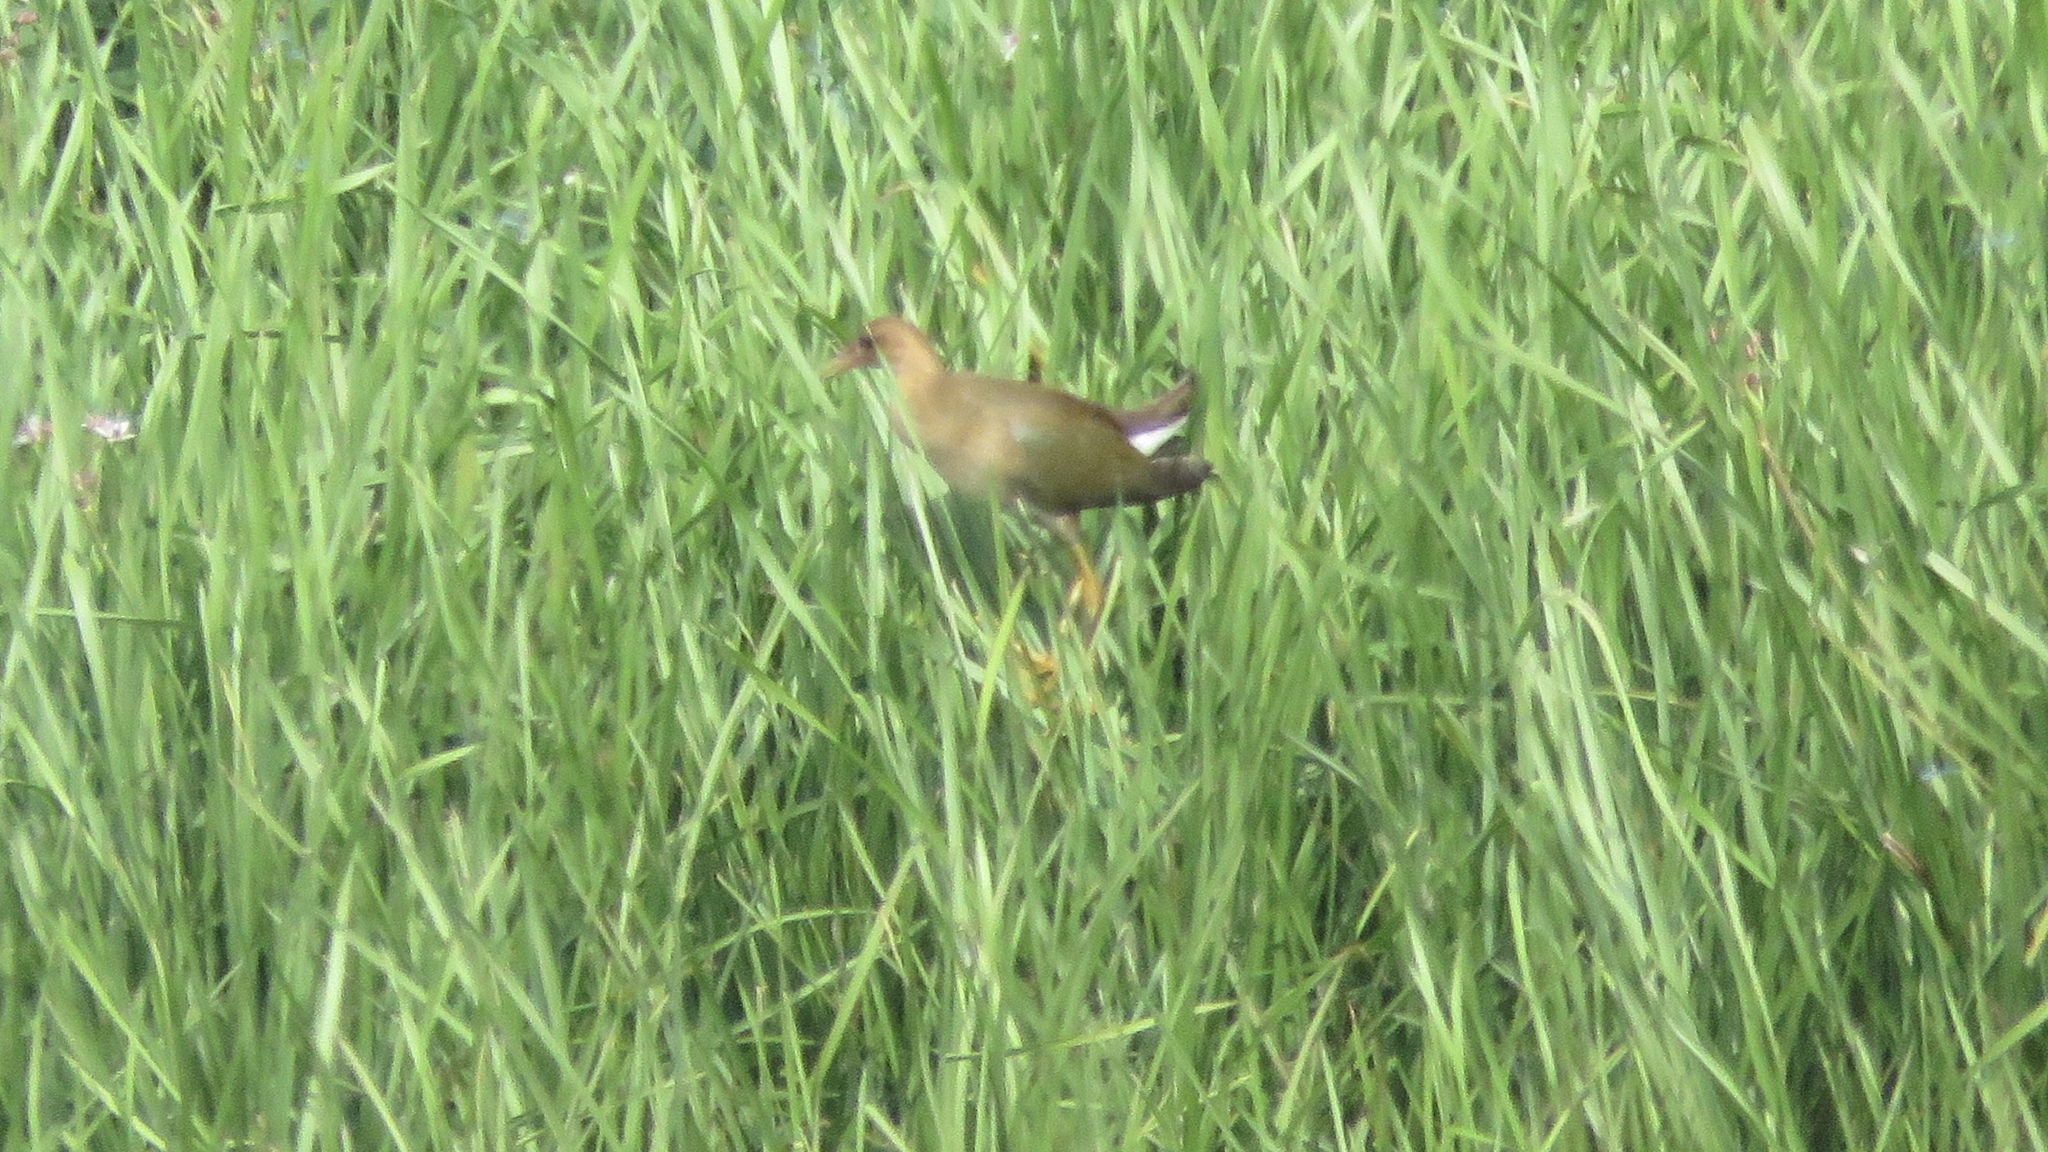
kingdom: Animalia
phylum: Chordata
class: Aves
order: Gruiformes
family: Rallidae
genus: Porphyrio
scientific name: Porphyrio martinica
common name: Purple gallinule
